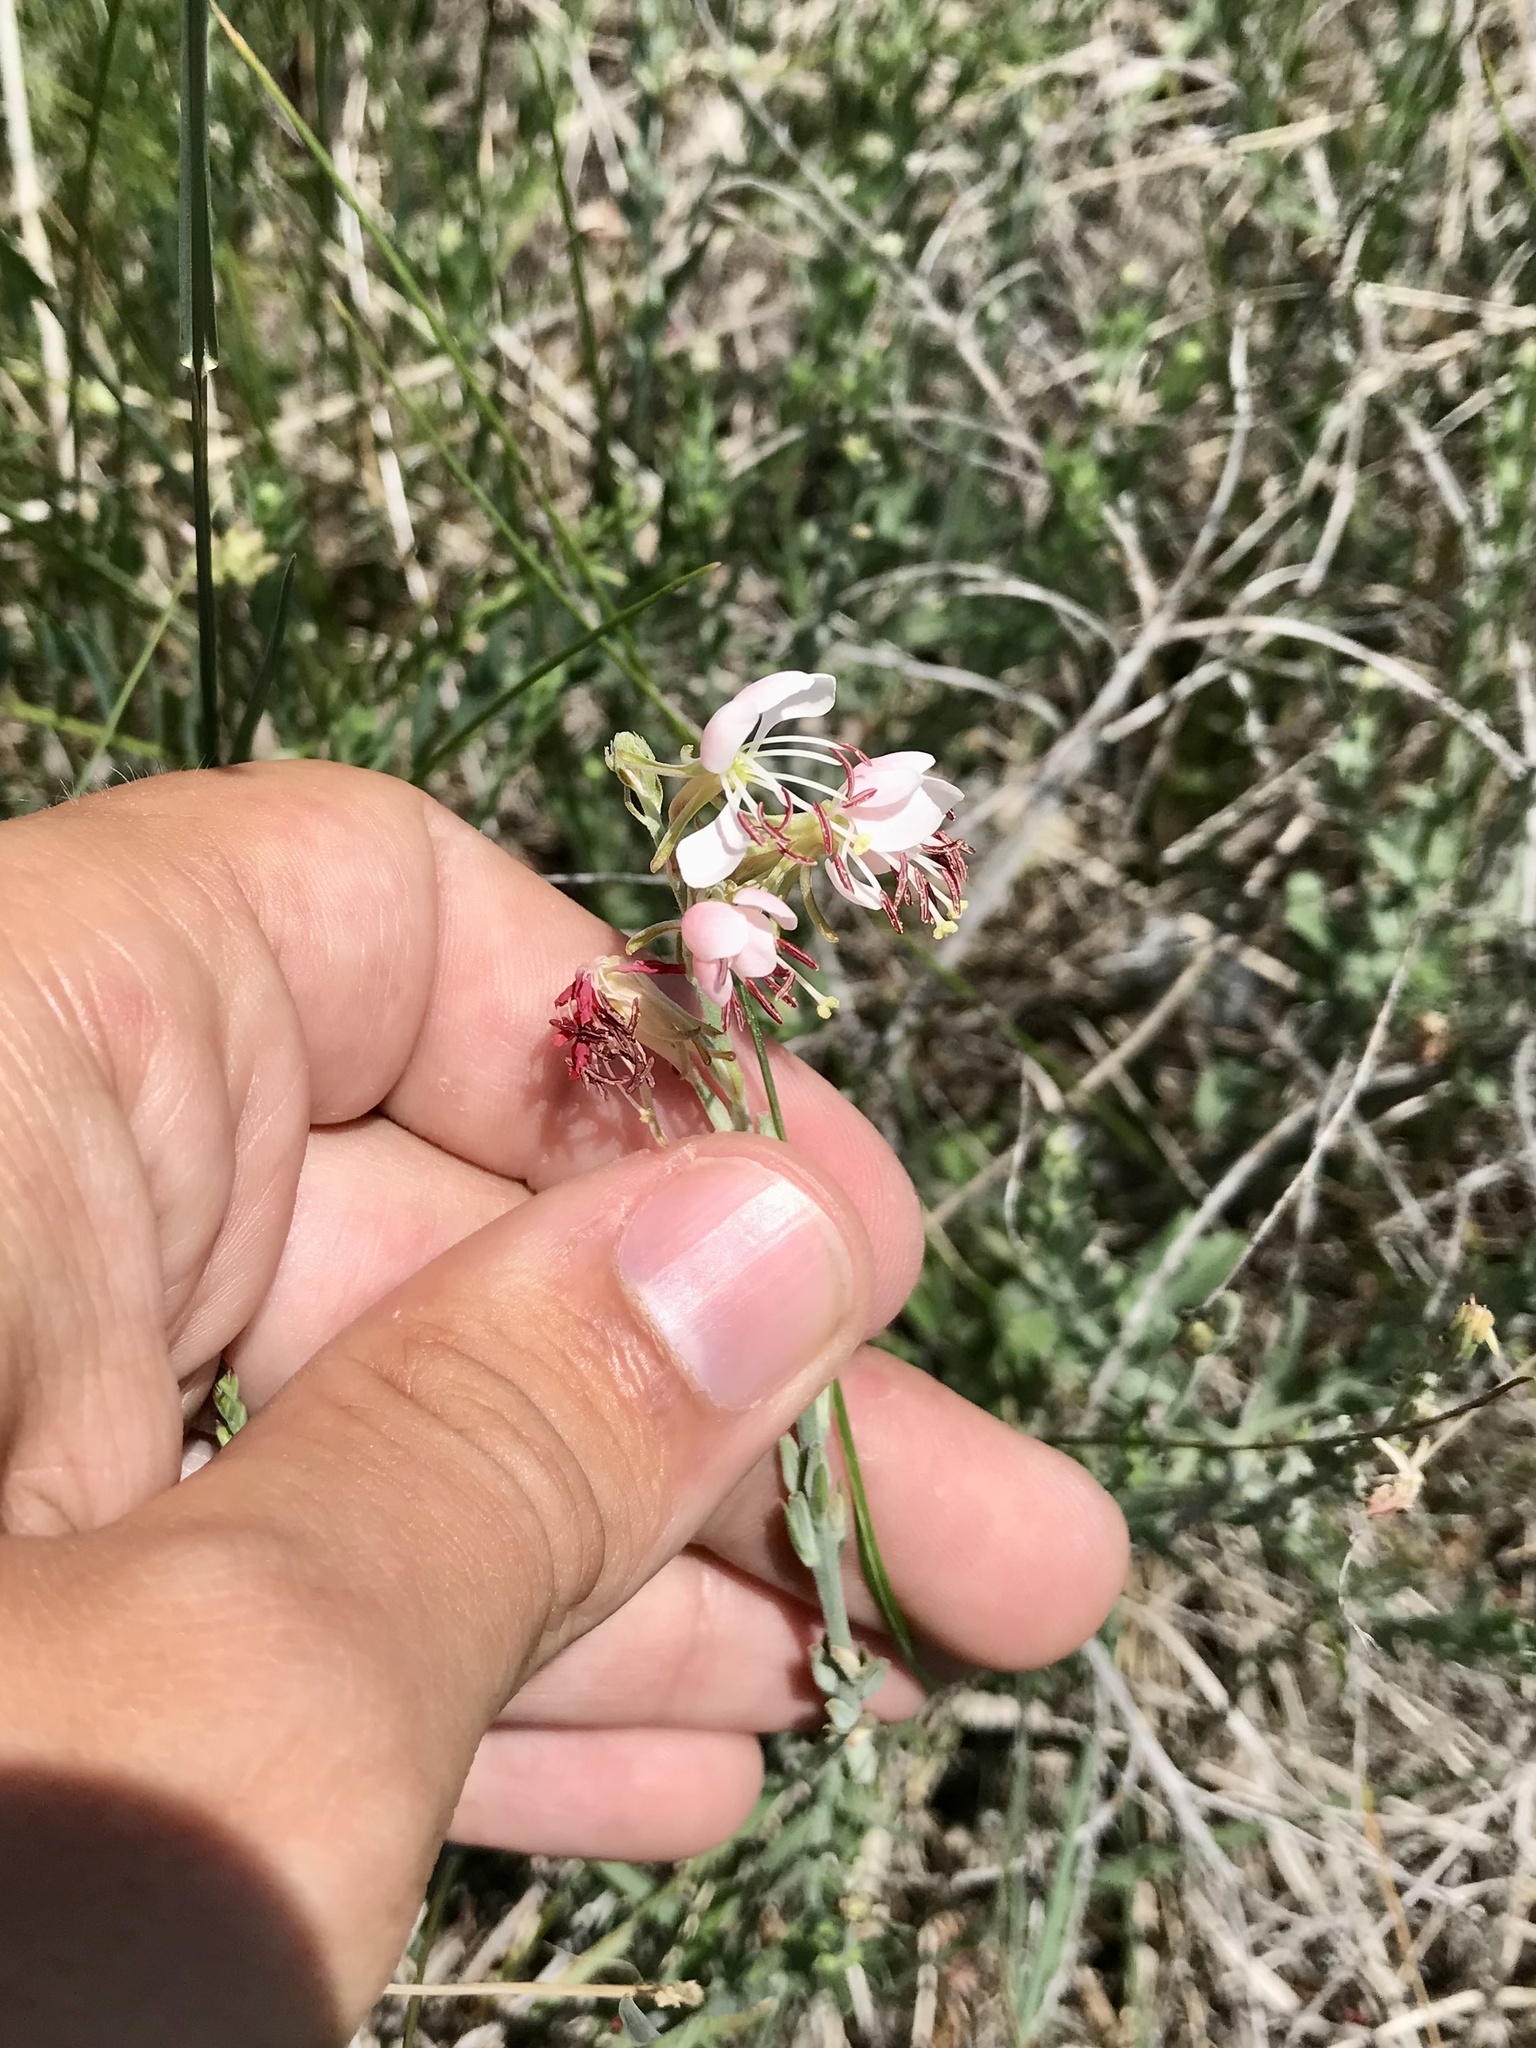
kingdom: Plantae
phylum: Tracheophyta
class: Magnoliopsida
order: Myrtales
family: Onagraceae
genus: Oenothera
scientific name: Oenothera suffrutescens
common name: Scarlet beeblossom
